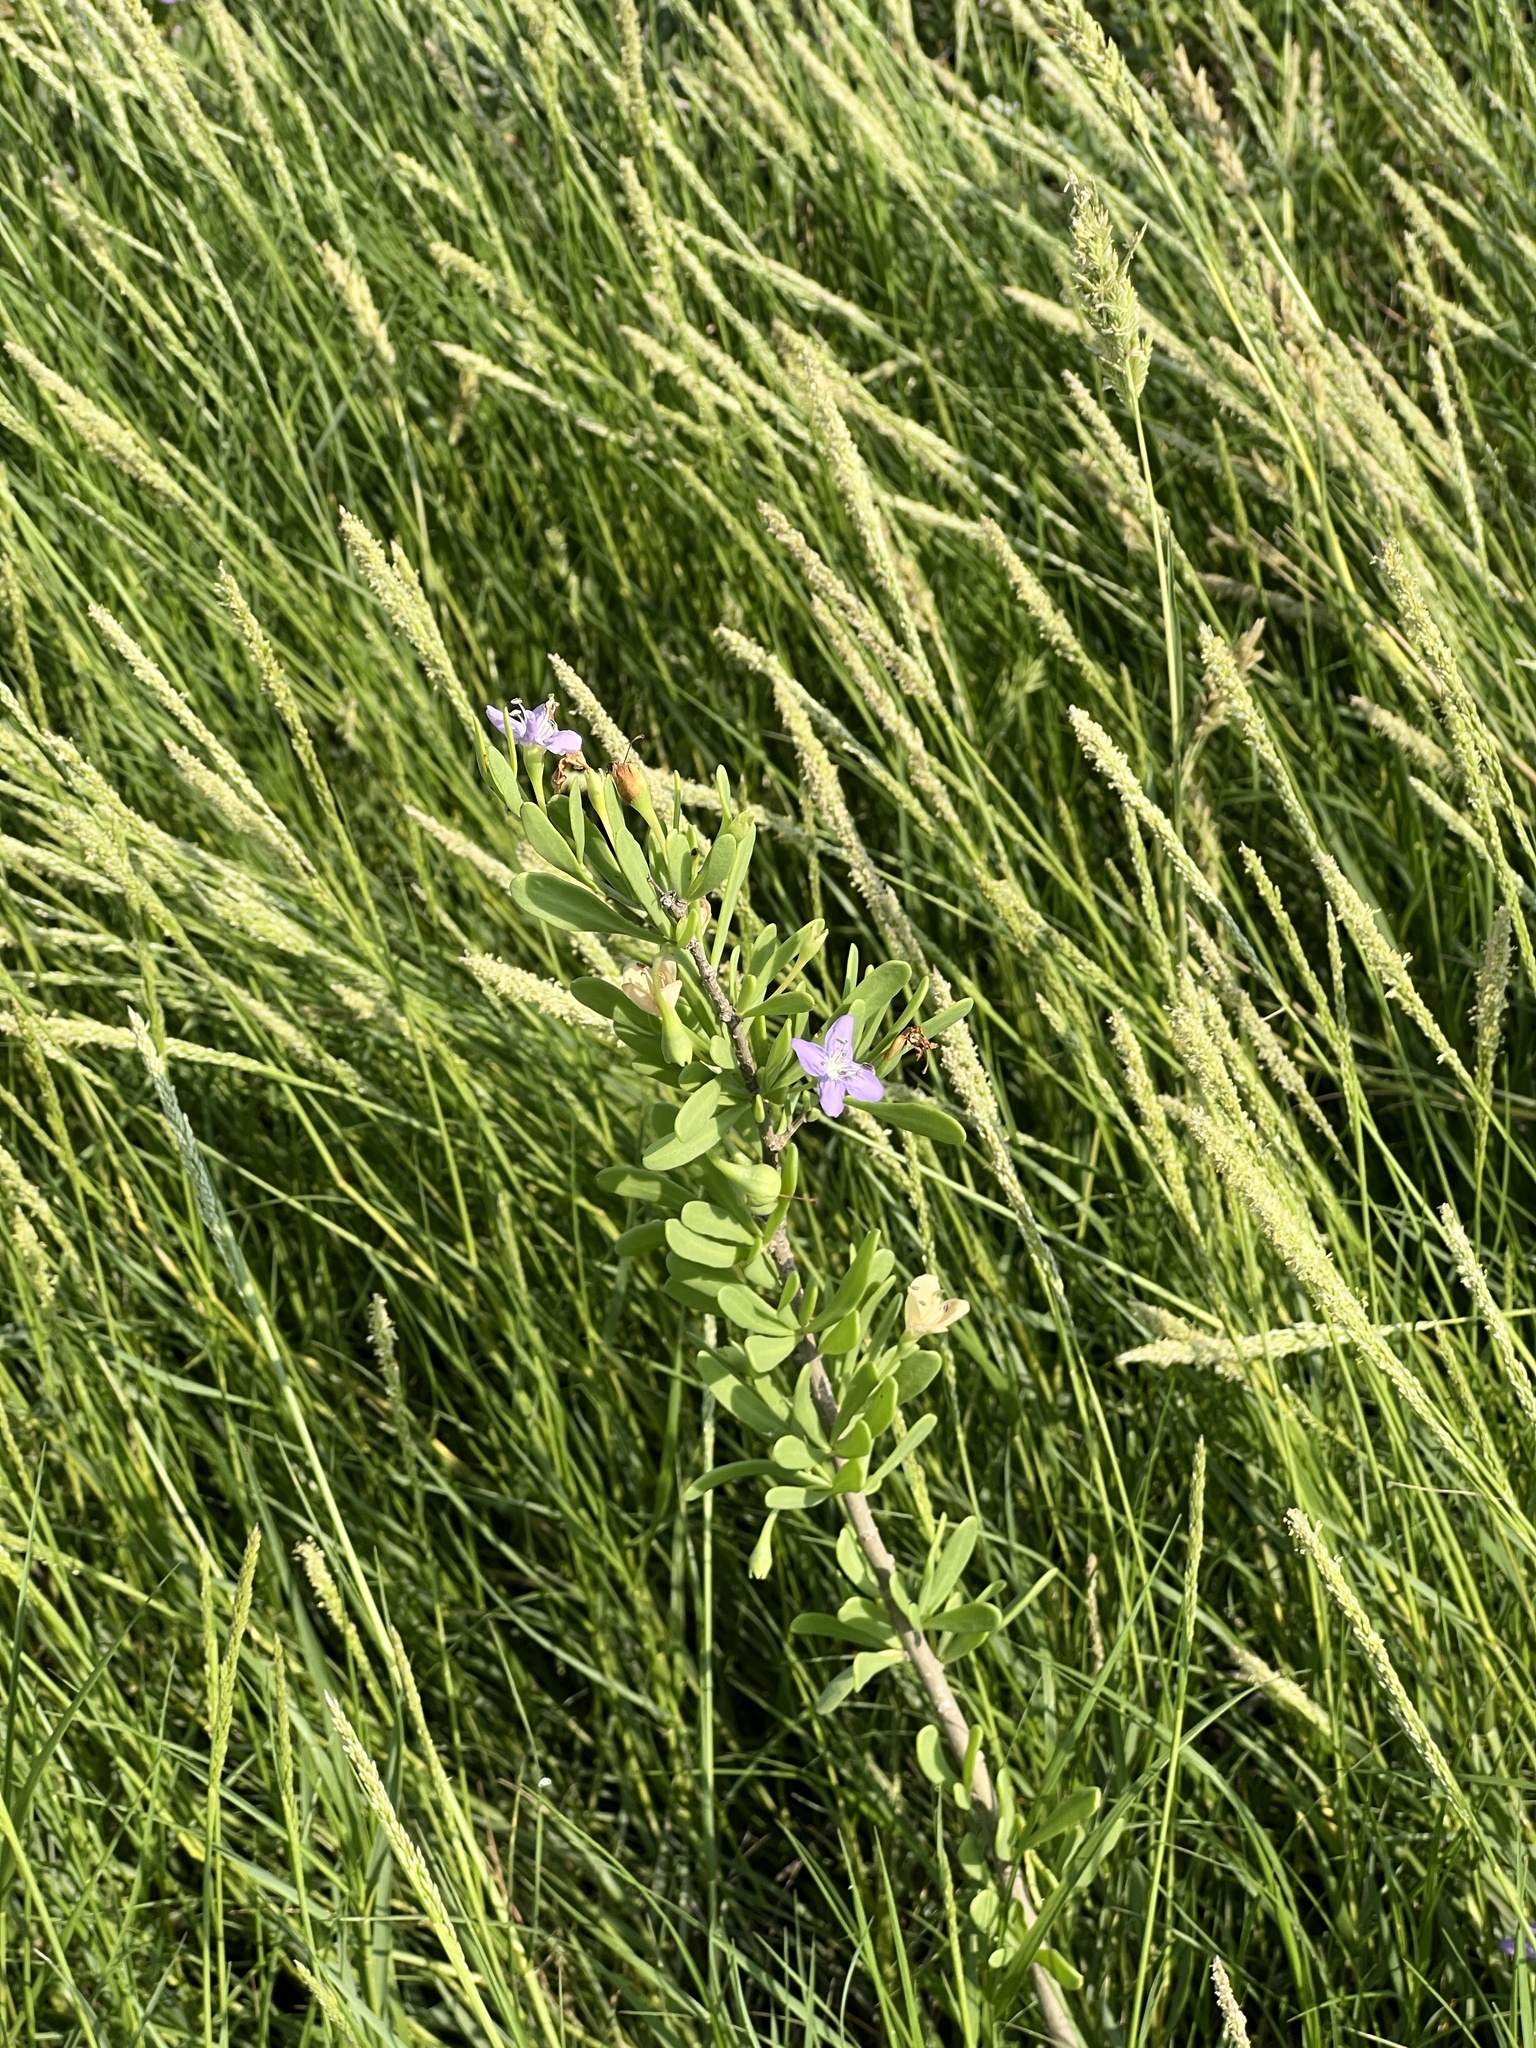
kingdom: Plantae
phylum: Tracheophyta
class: Magnoliopsida
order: Solanales
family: Solanaceae
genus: Lycium
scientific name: Lycium carolinianum
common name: Christmasberry
